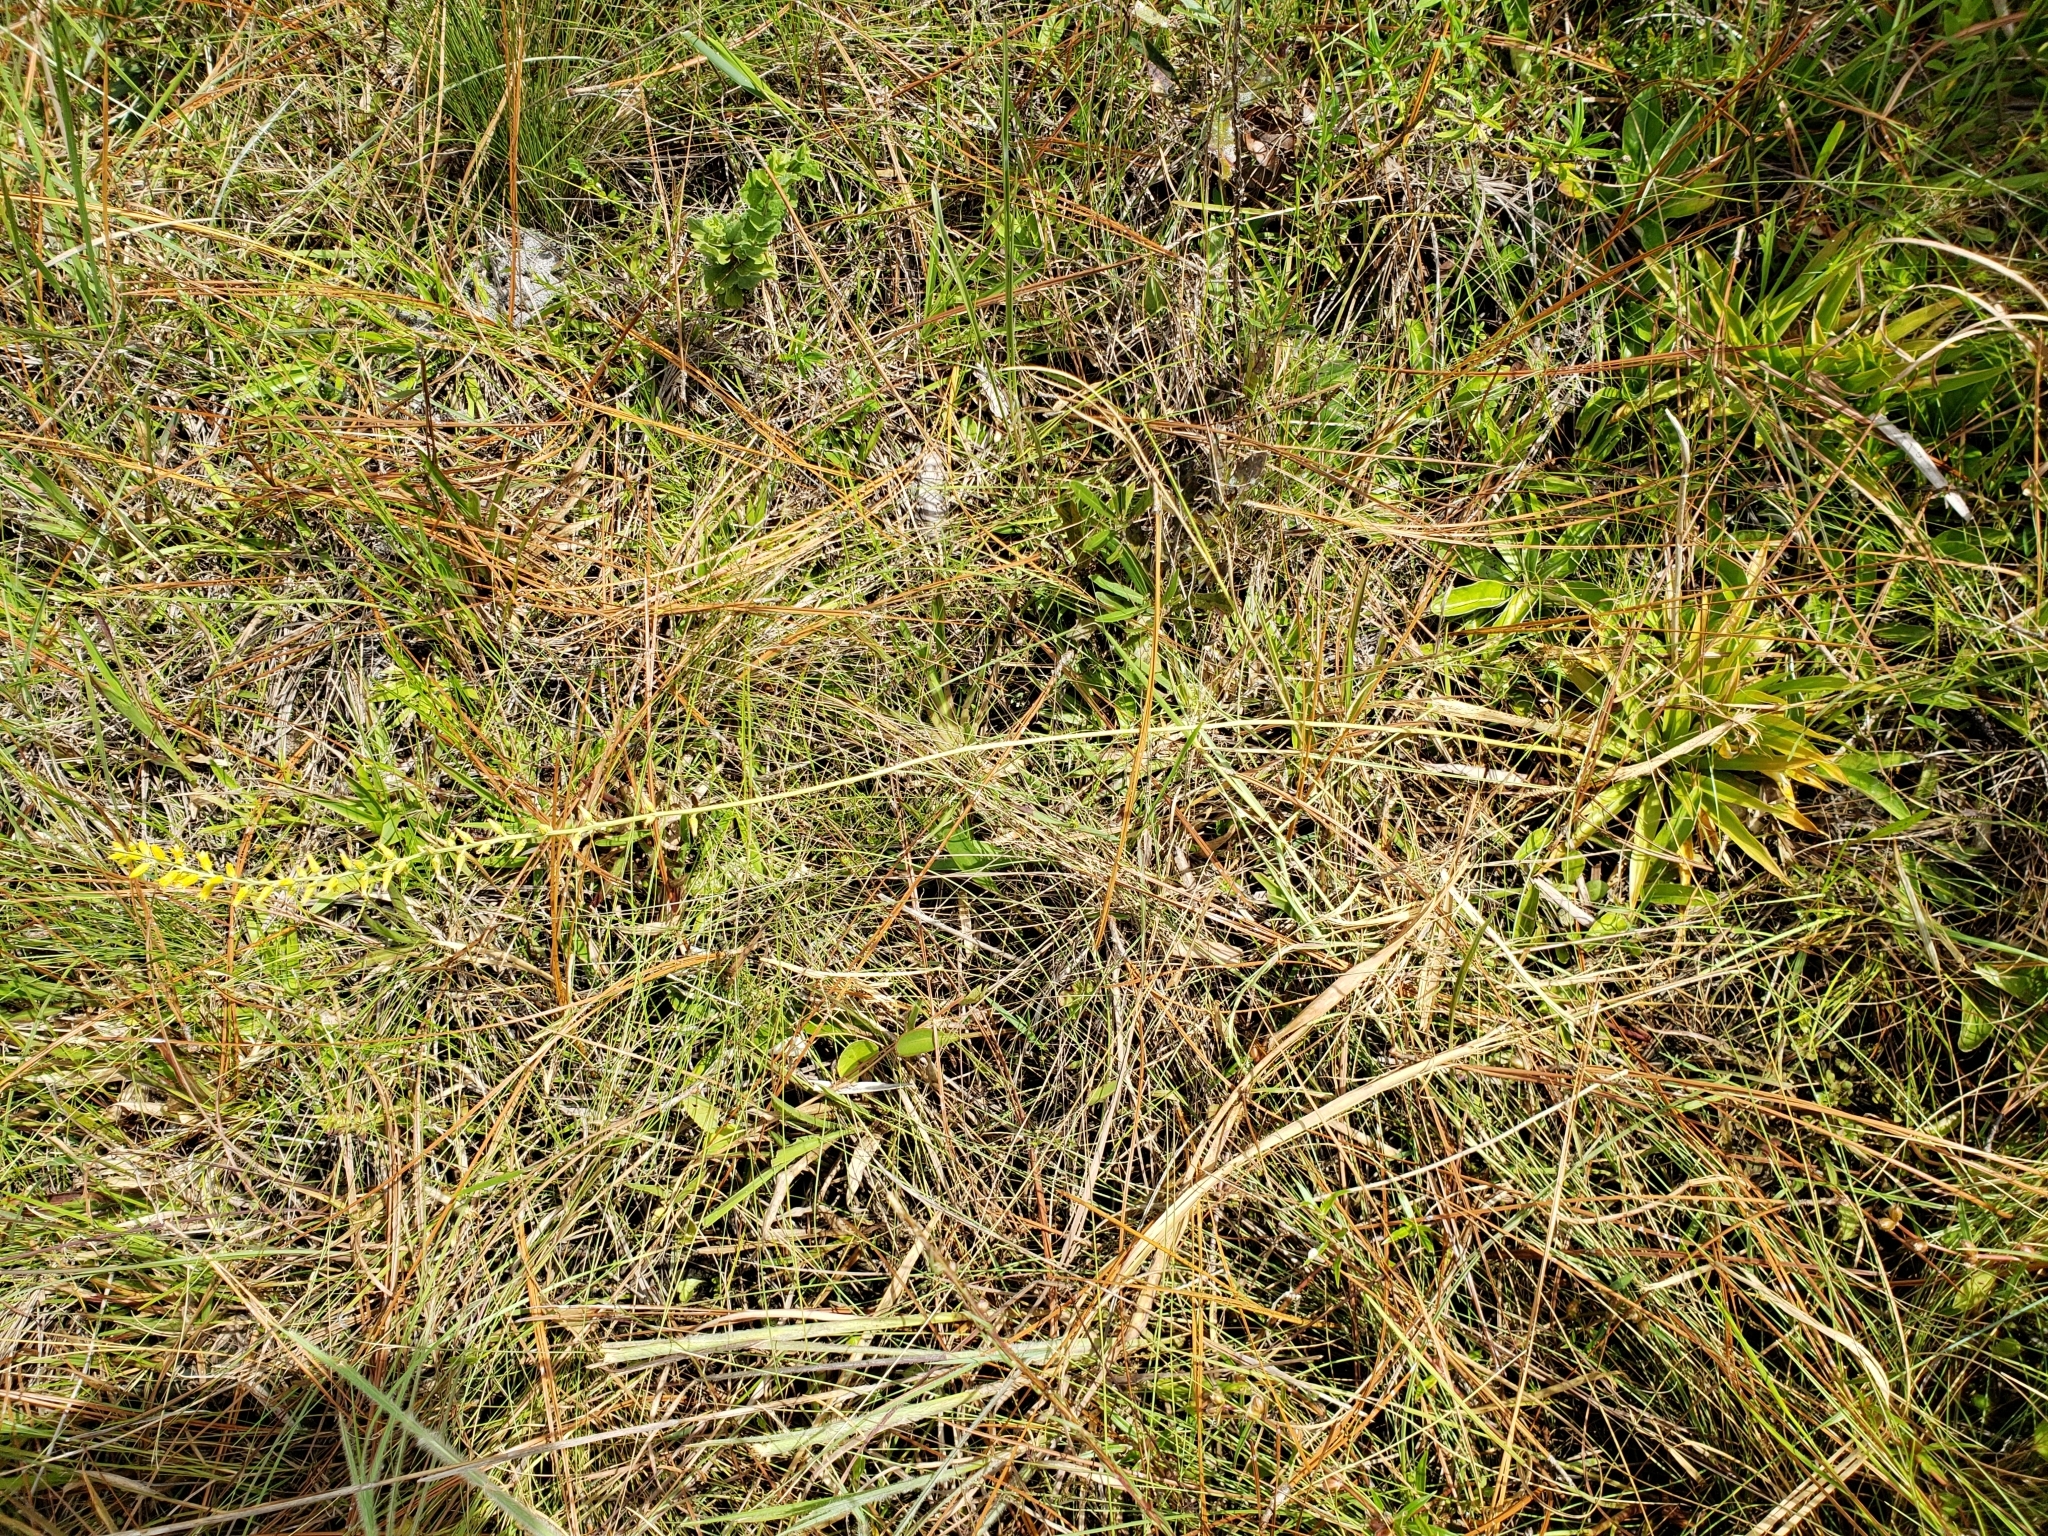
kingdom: Plantae
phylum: Tracheophyta
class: Liliopsida
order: Dioscoreales
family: Nartheciaceae
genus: Aletris
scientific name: Aletris lutea
